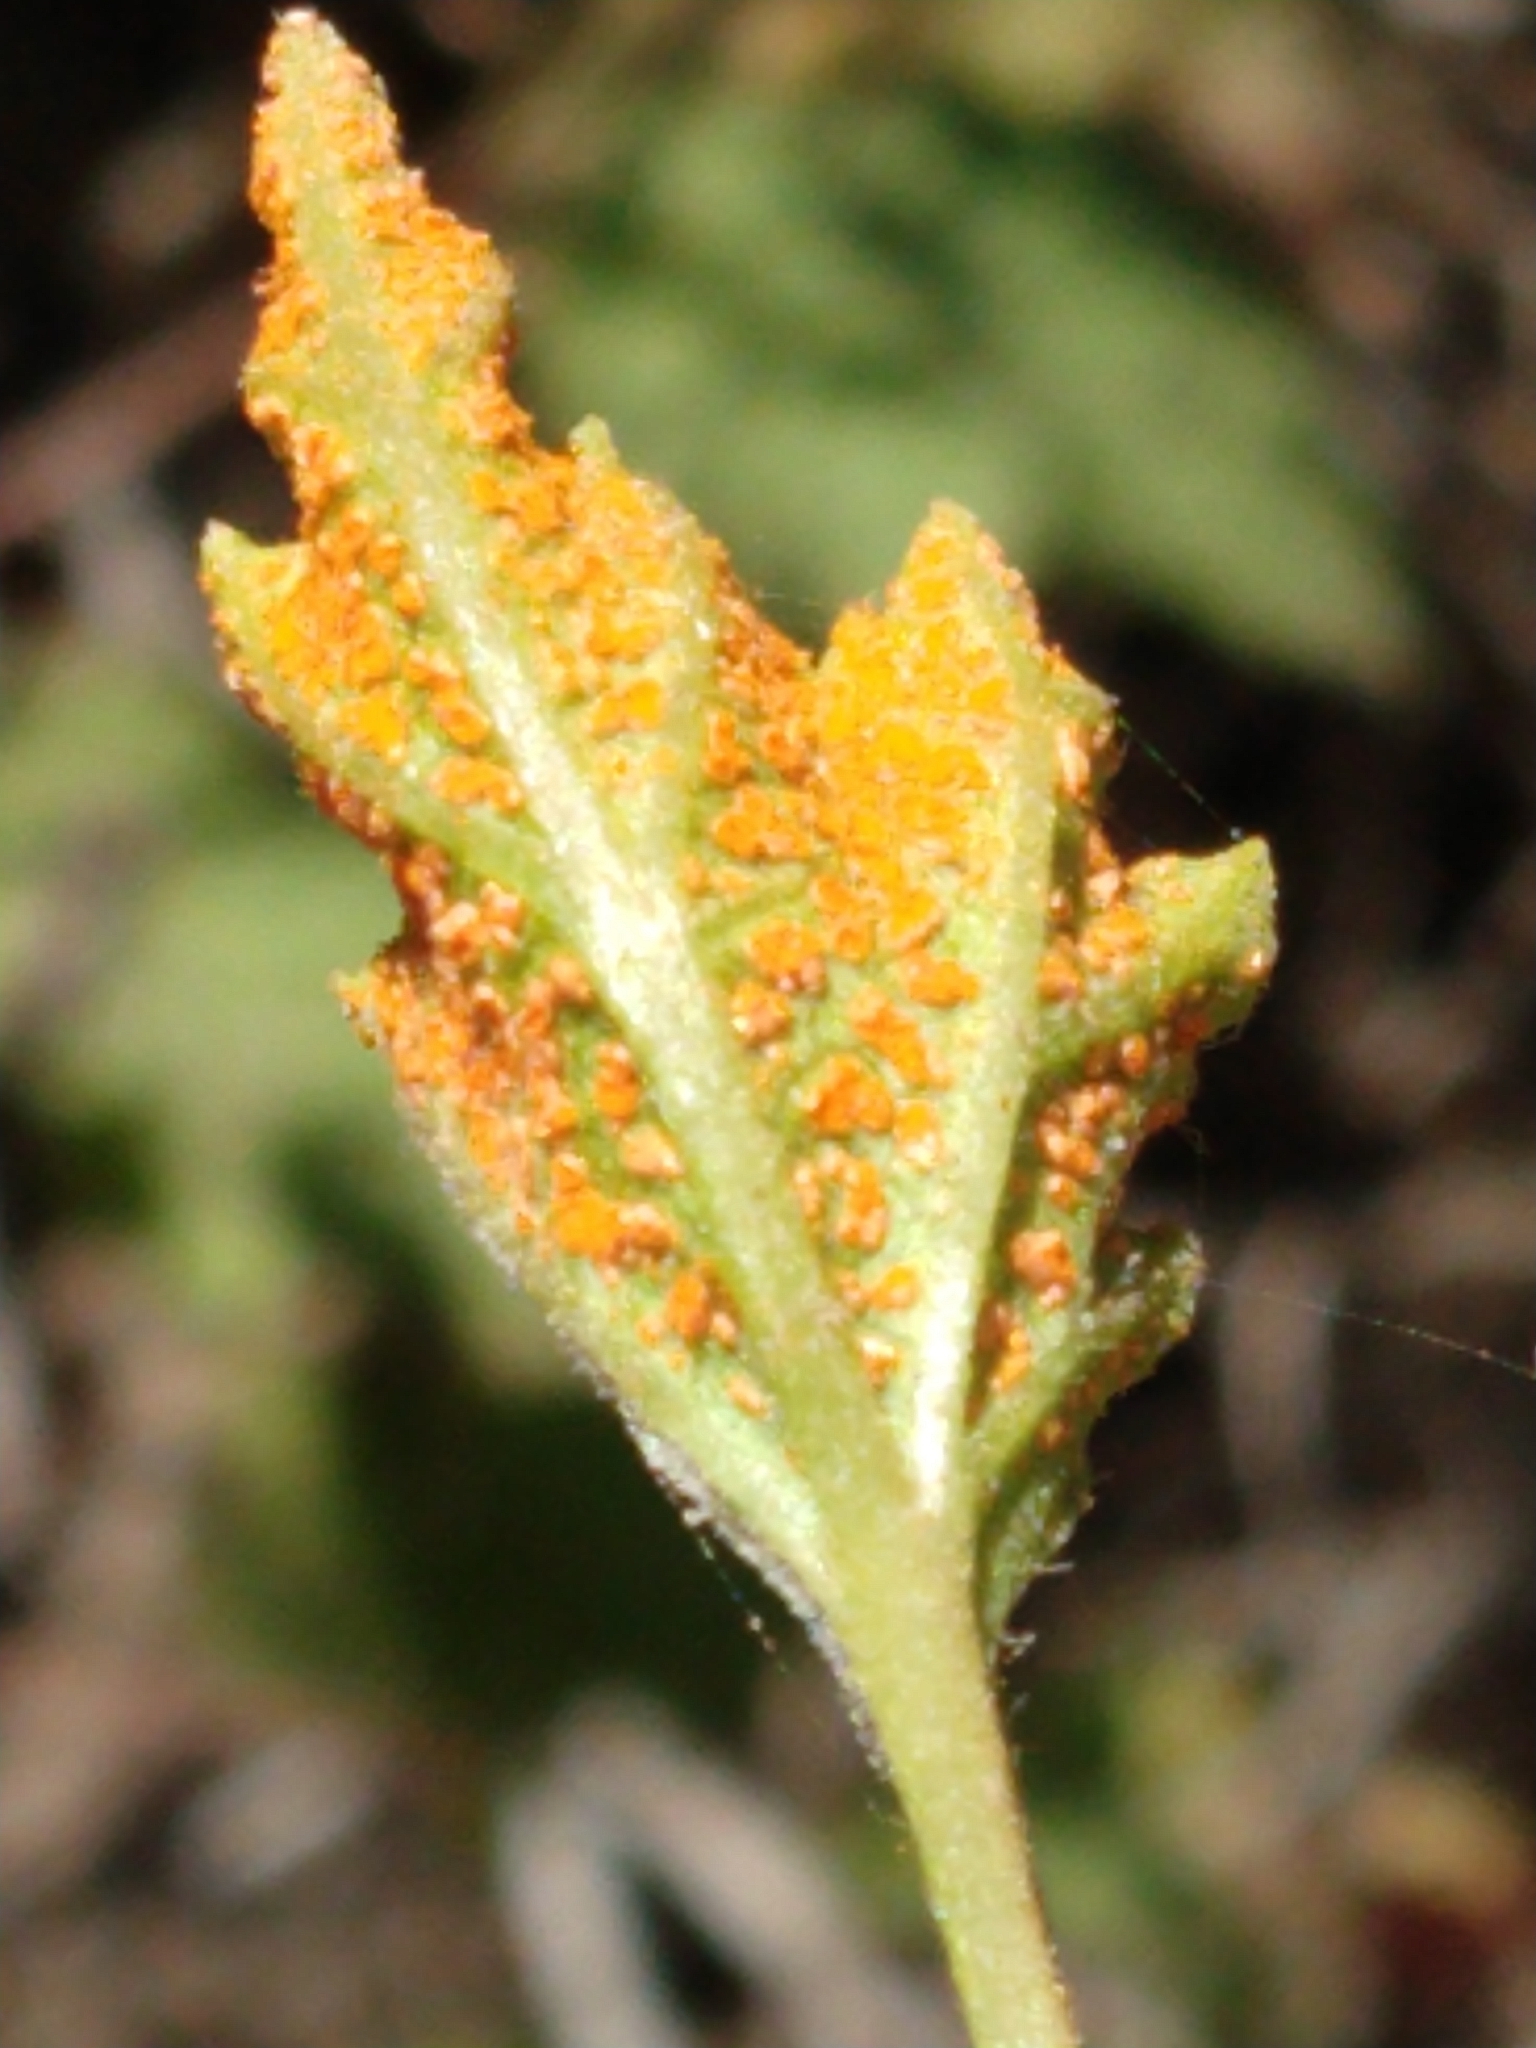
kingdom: Fungi
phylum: Basidiomycota
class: Pucciniomycetes
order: Pucciniales
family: Phragmidiaceae
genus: Arthuriomyces
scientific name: Arthuriomyces peckianus
